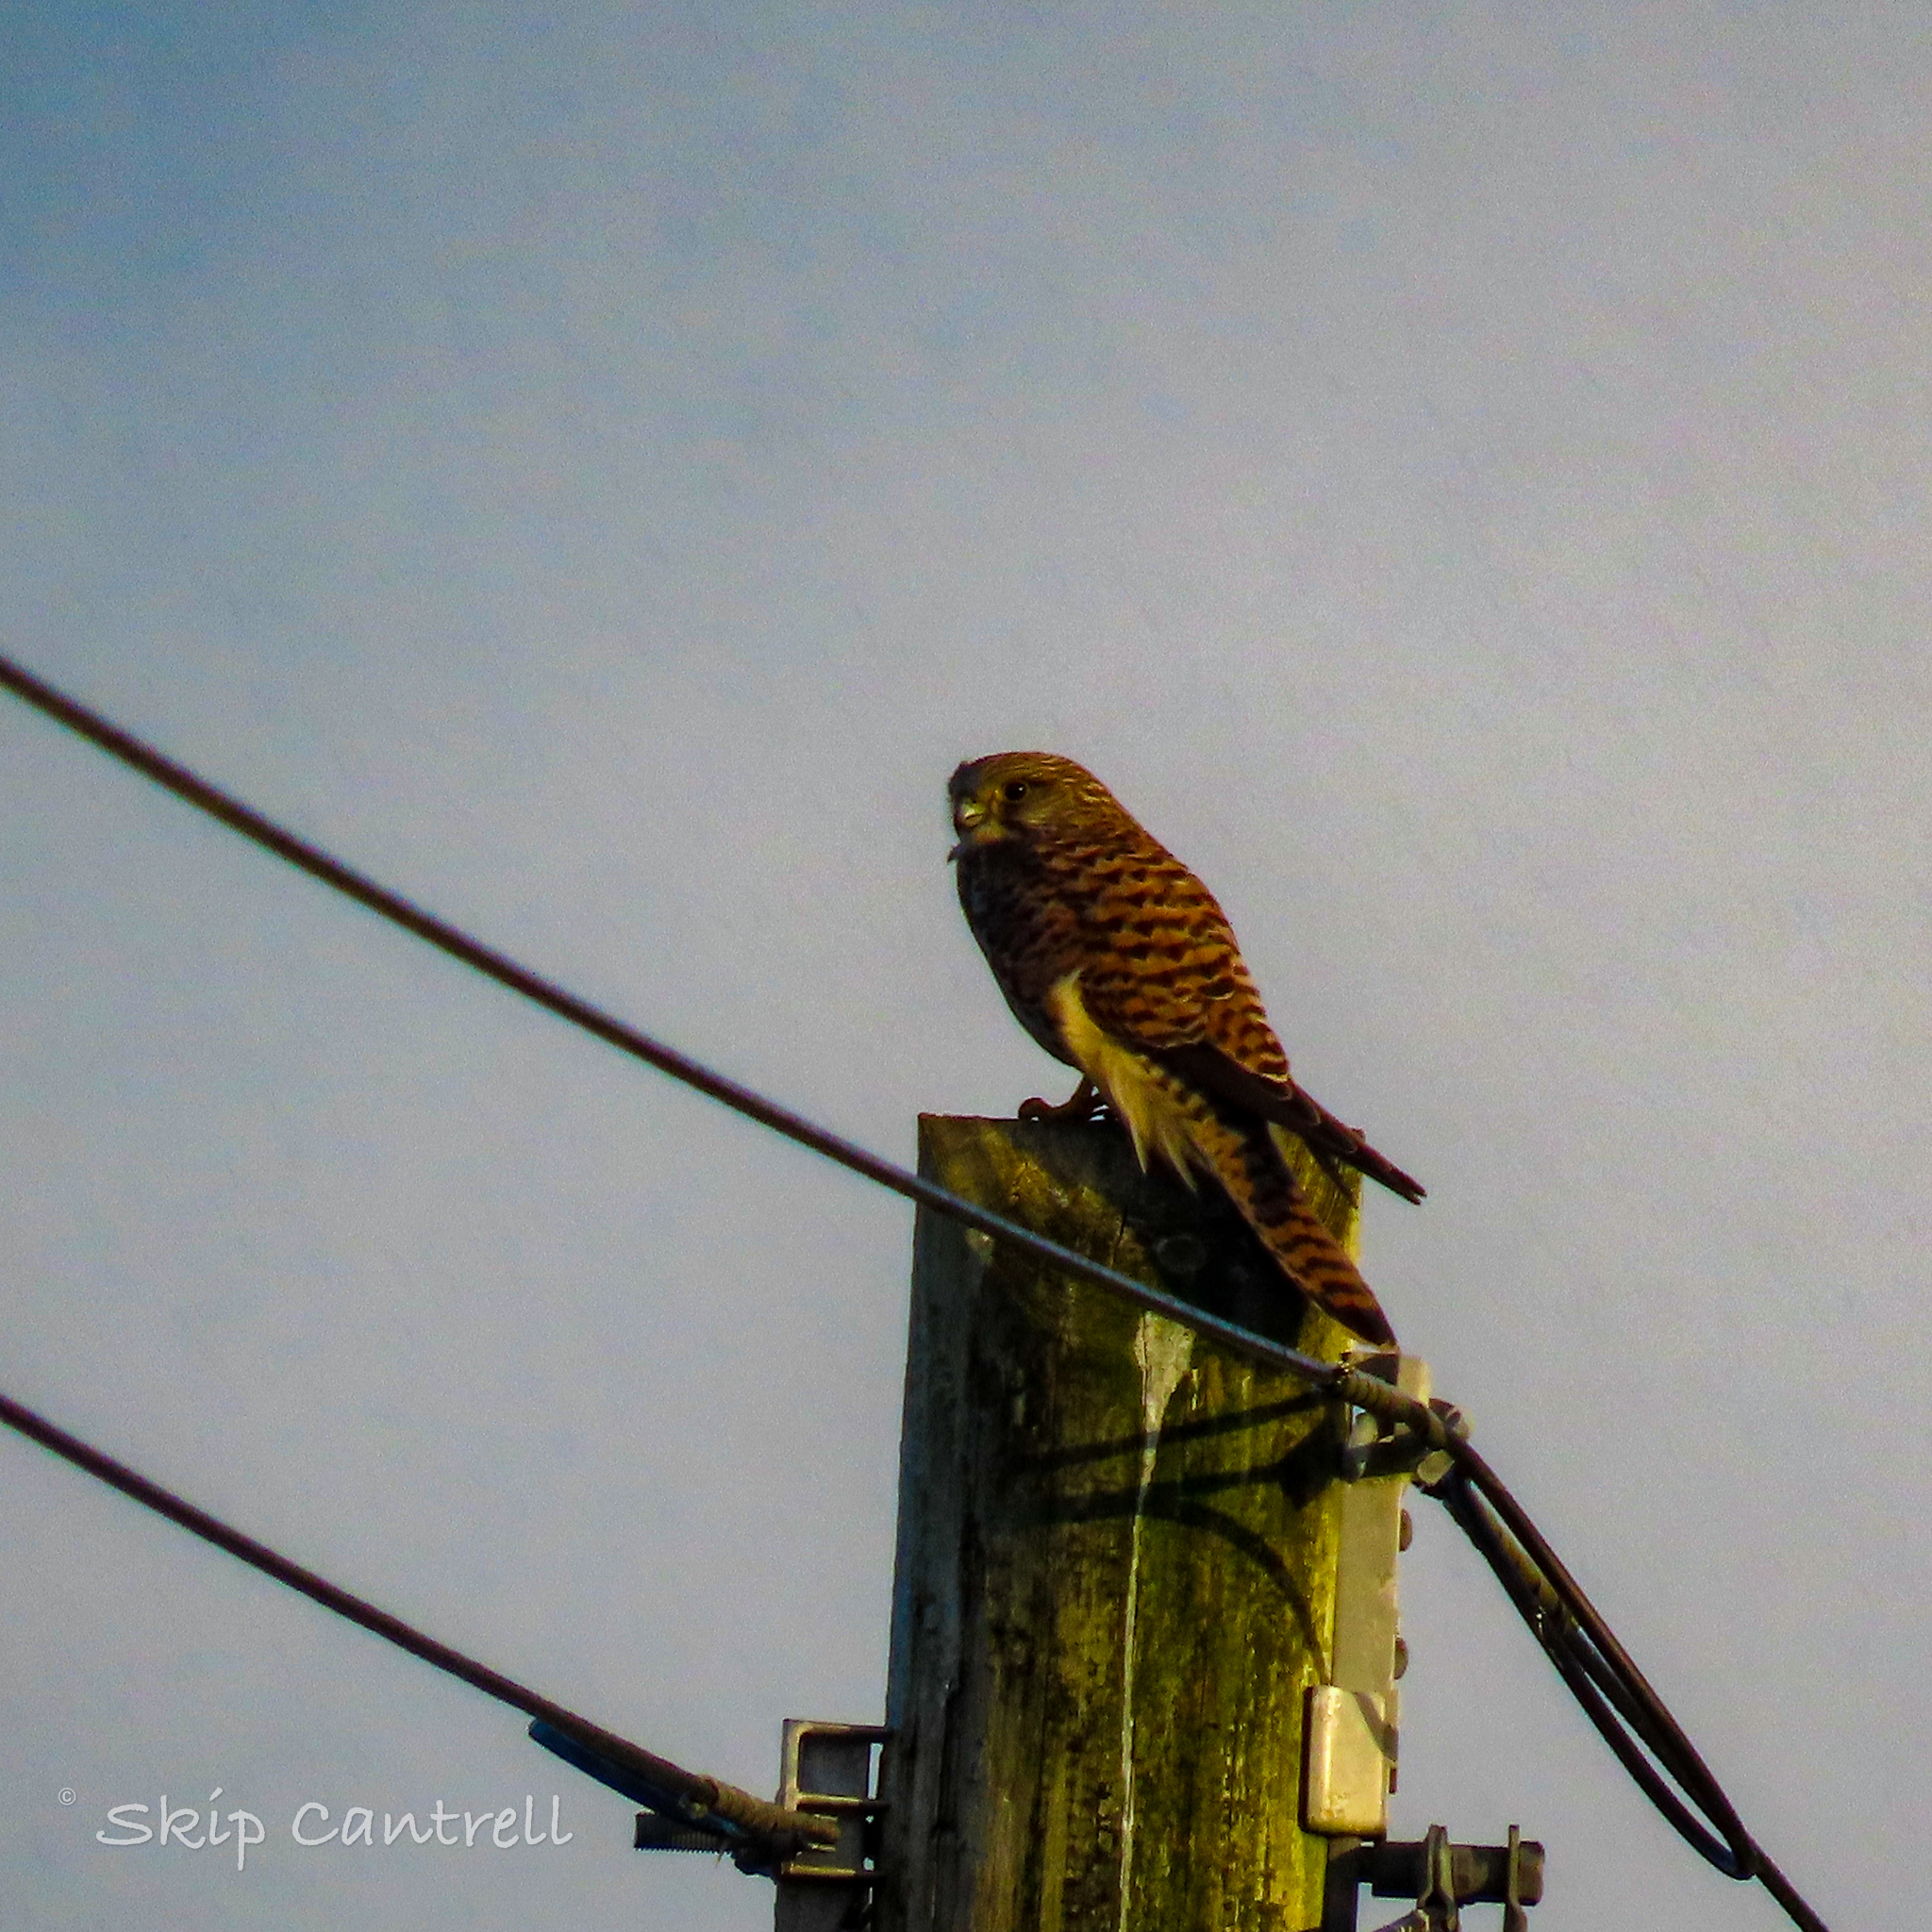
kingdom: Animalia
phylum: Chordata
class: Aves
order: Falconiformes
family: Falconidae
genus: Falco
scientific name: Falco tinnunculus
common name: Common kestrel
